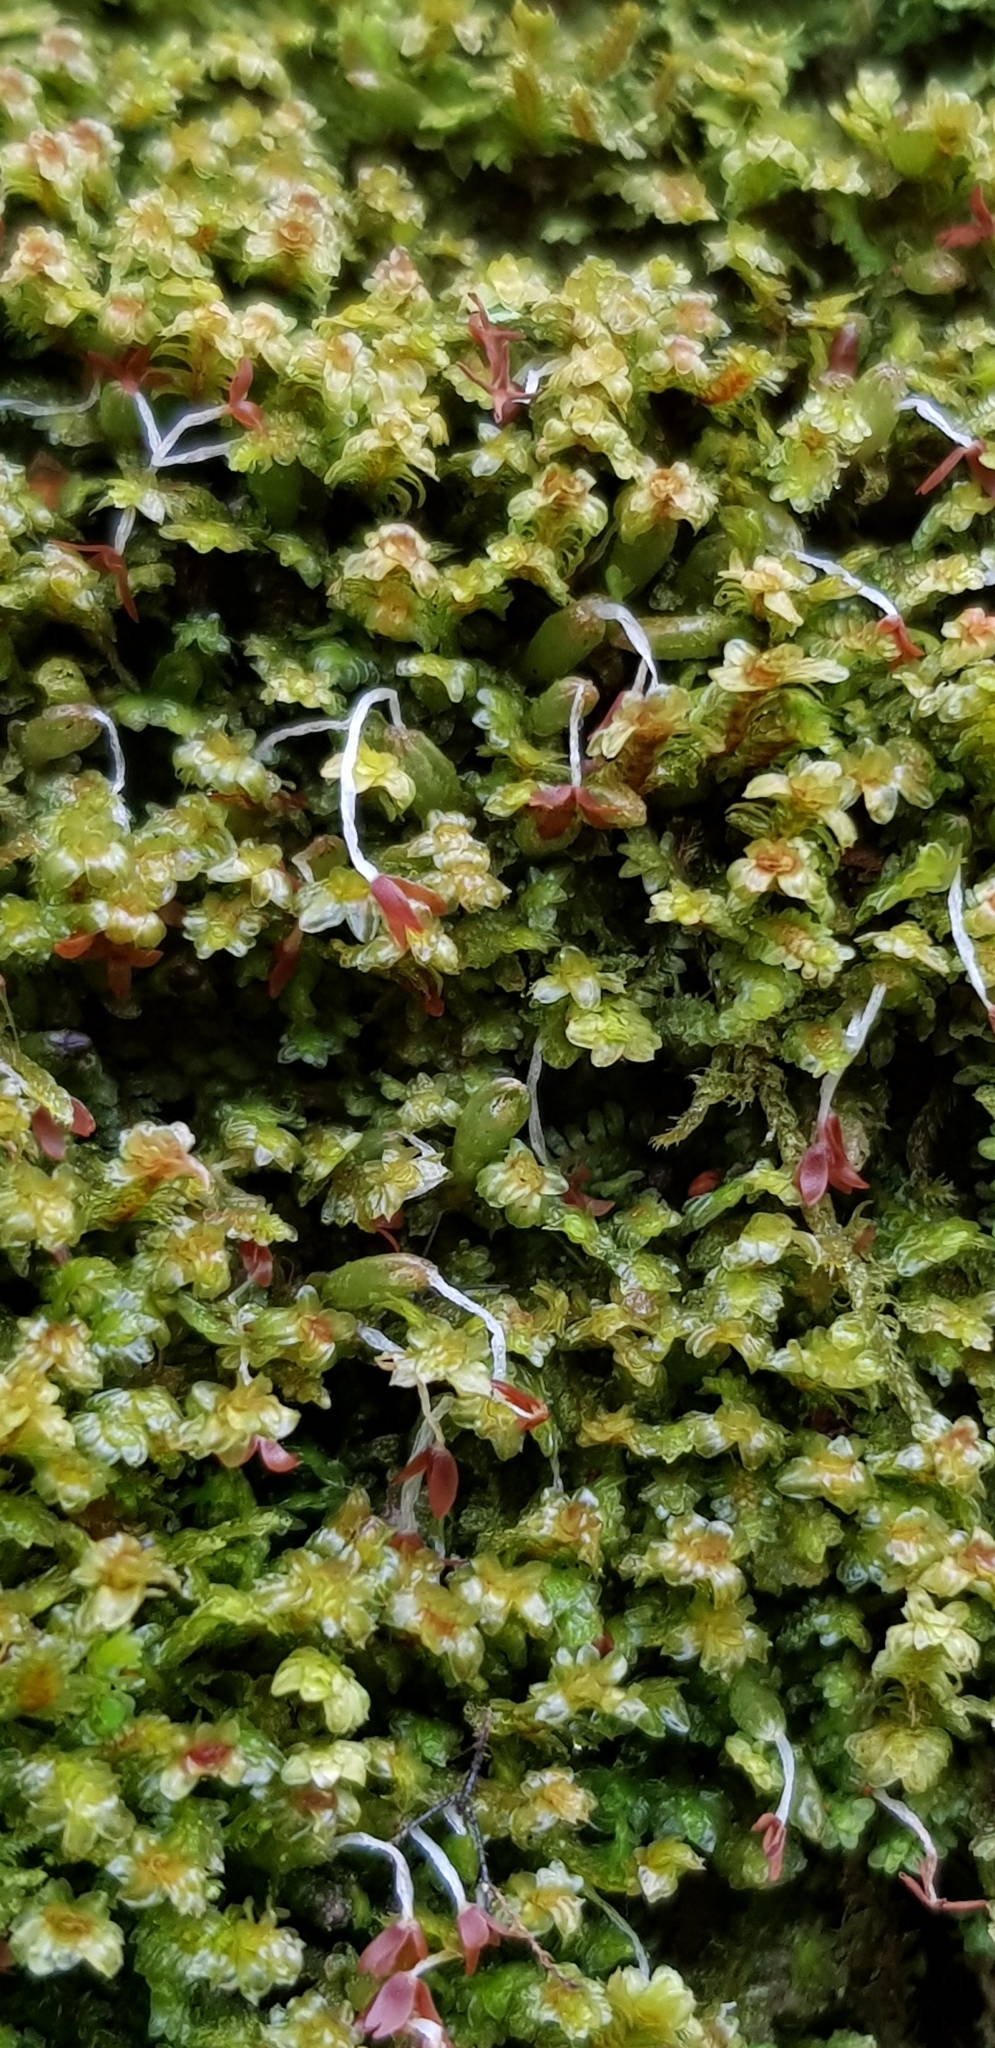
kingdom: Plantae
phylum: Marchantiophyta
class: Jungermanniopsida
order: Jungermanniales
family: Scapaniaceae
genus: Diplophyllum
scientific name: Diplophyllum albicans
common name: White earwort
